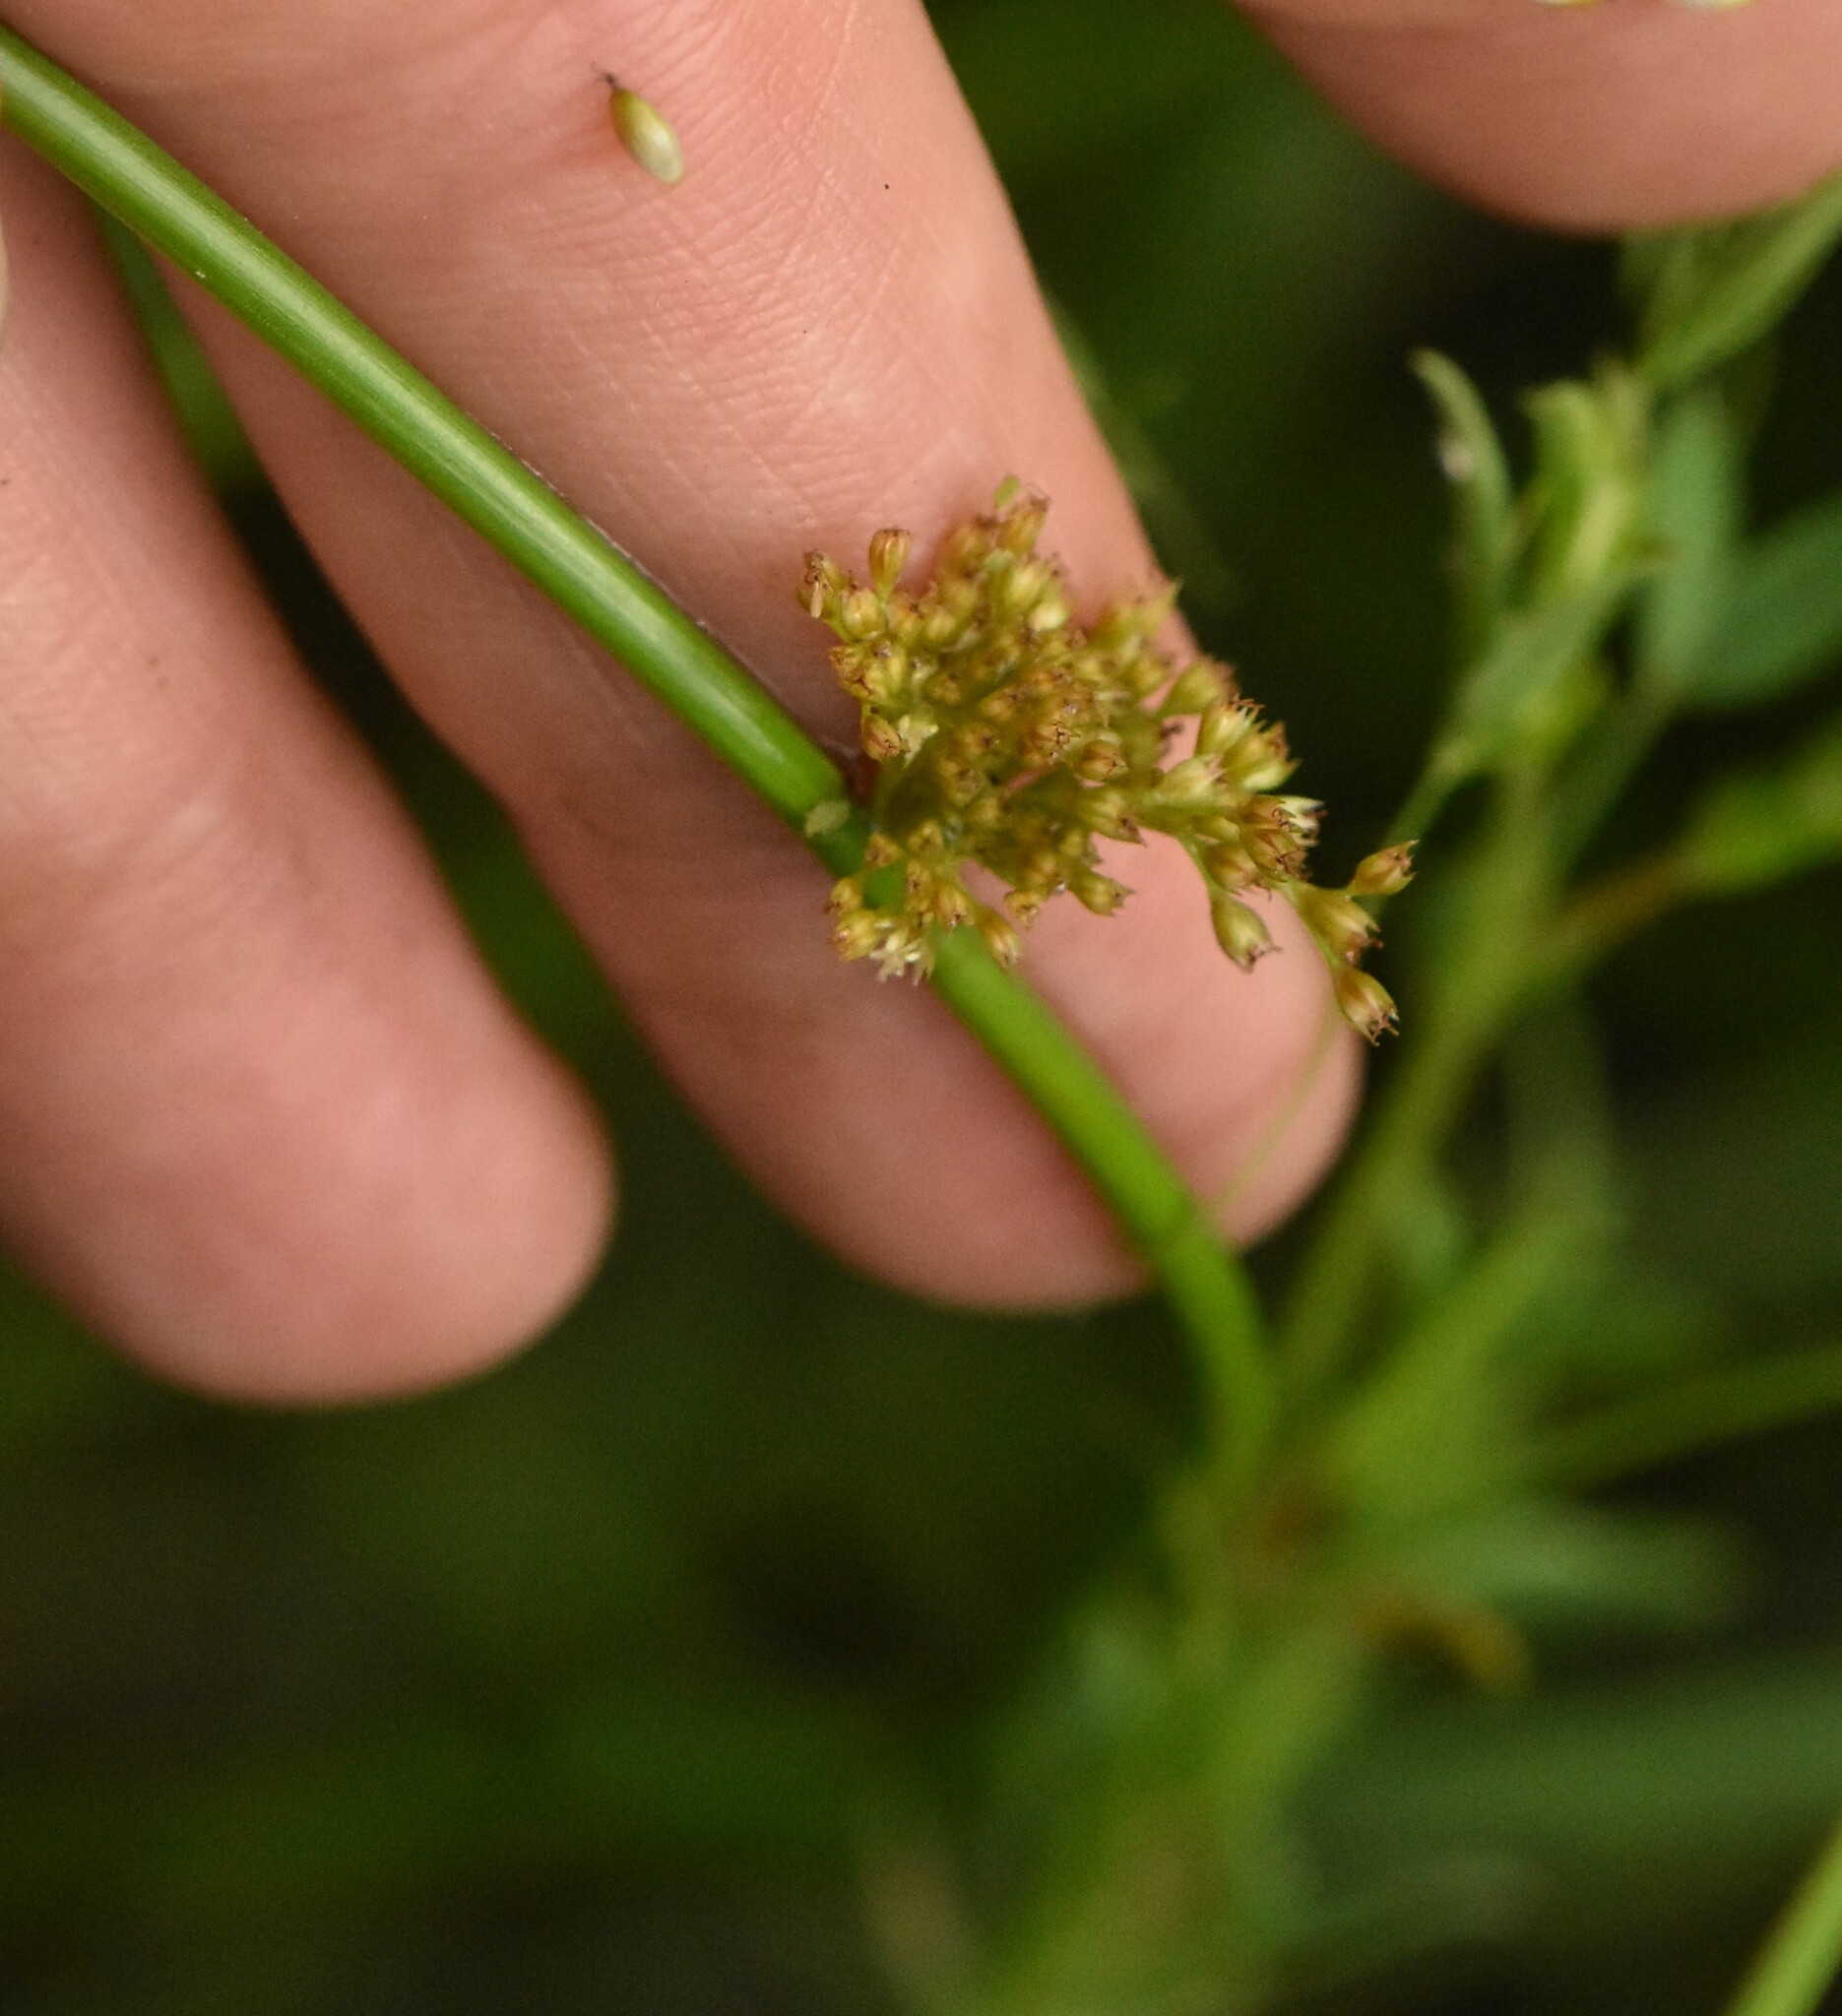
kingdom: Plantae
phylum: Tracheophyta
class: Liliopsida
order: Poales
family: Juncaceae
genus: Juncus
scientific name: Juncus effusus
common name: Soft rush
